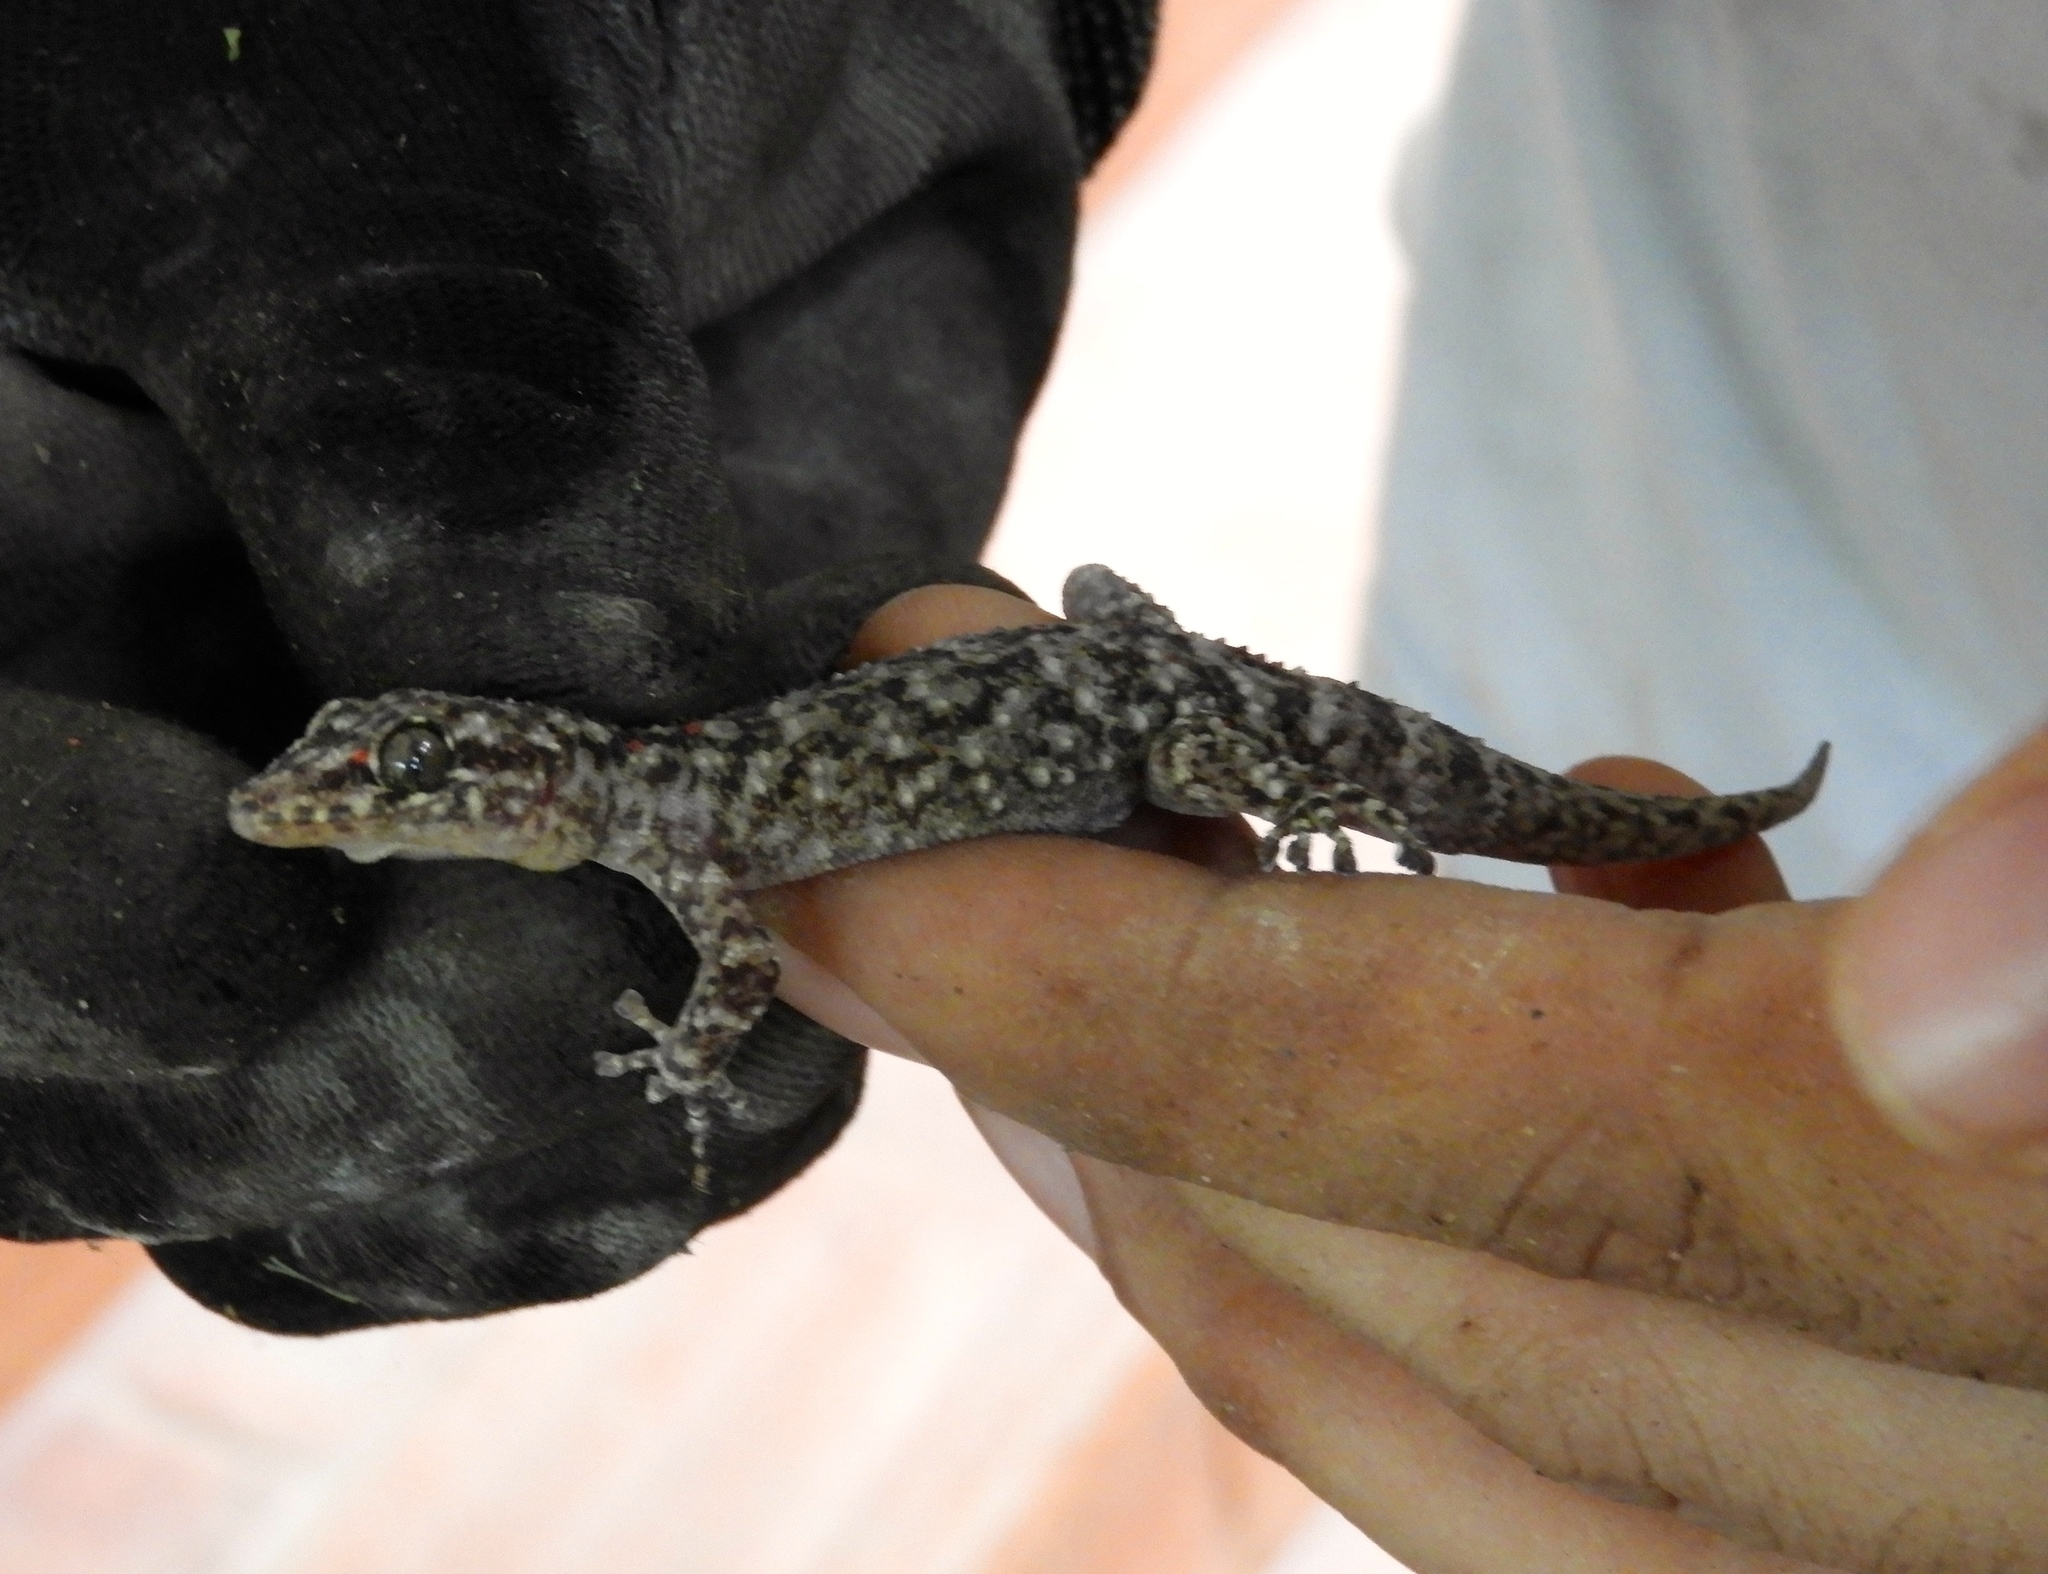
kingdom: Animalia
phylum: Chordata
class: Squamata
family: Phyllodactylidae
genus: Phyllodactylus
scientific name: Phyllodactylus tuberculosus
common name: Yellowbelly  gecko
